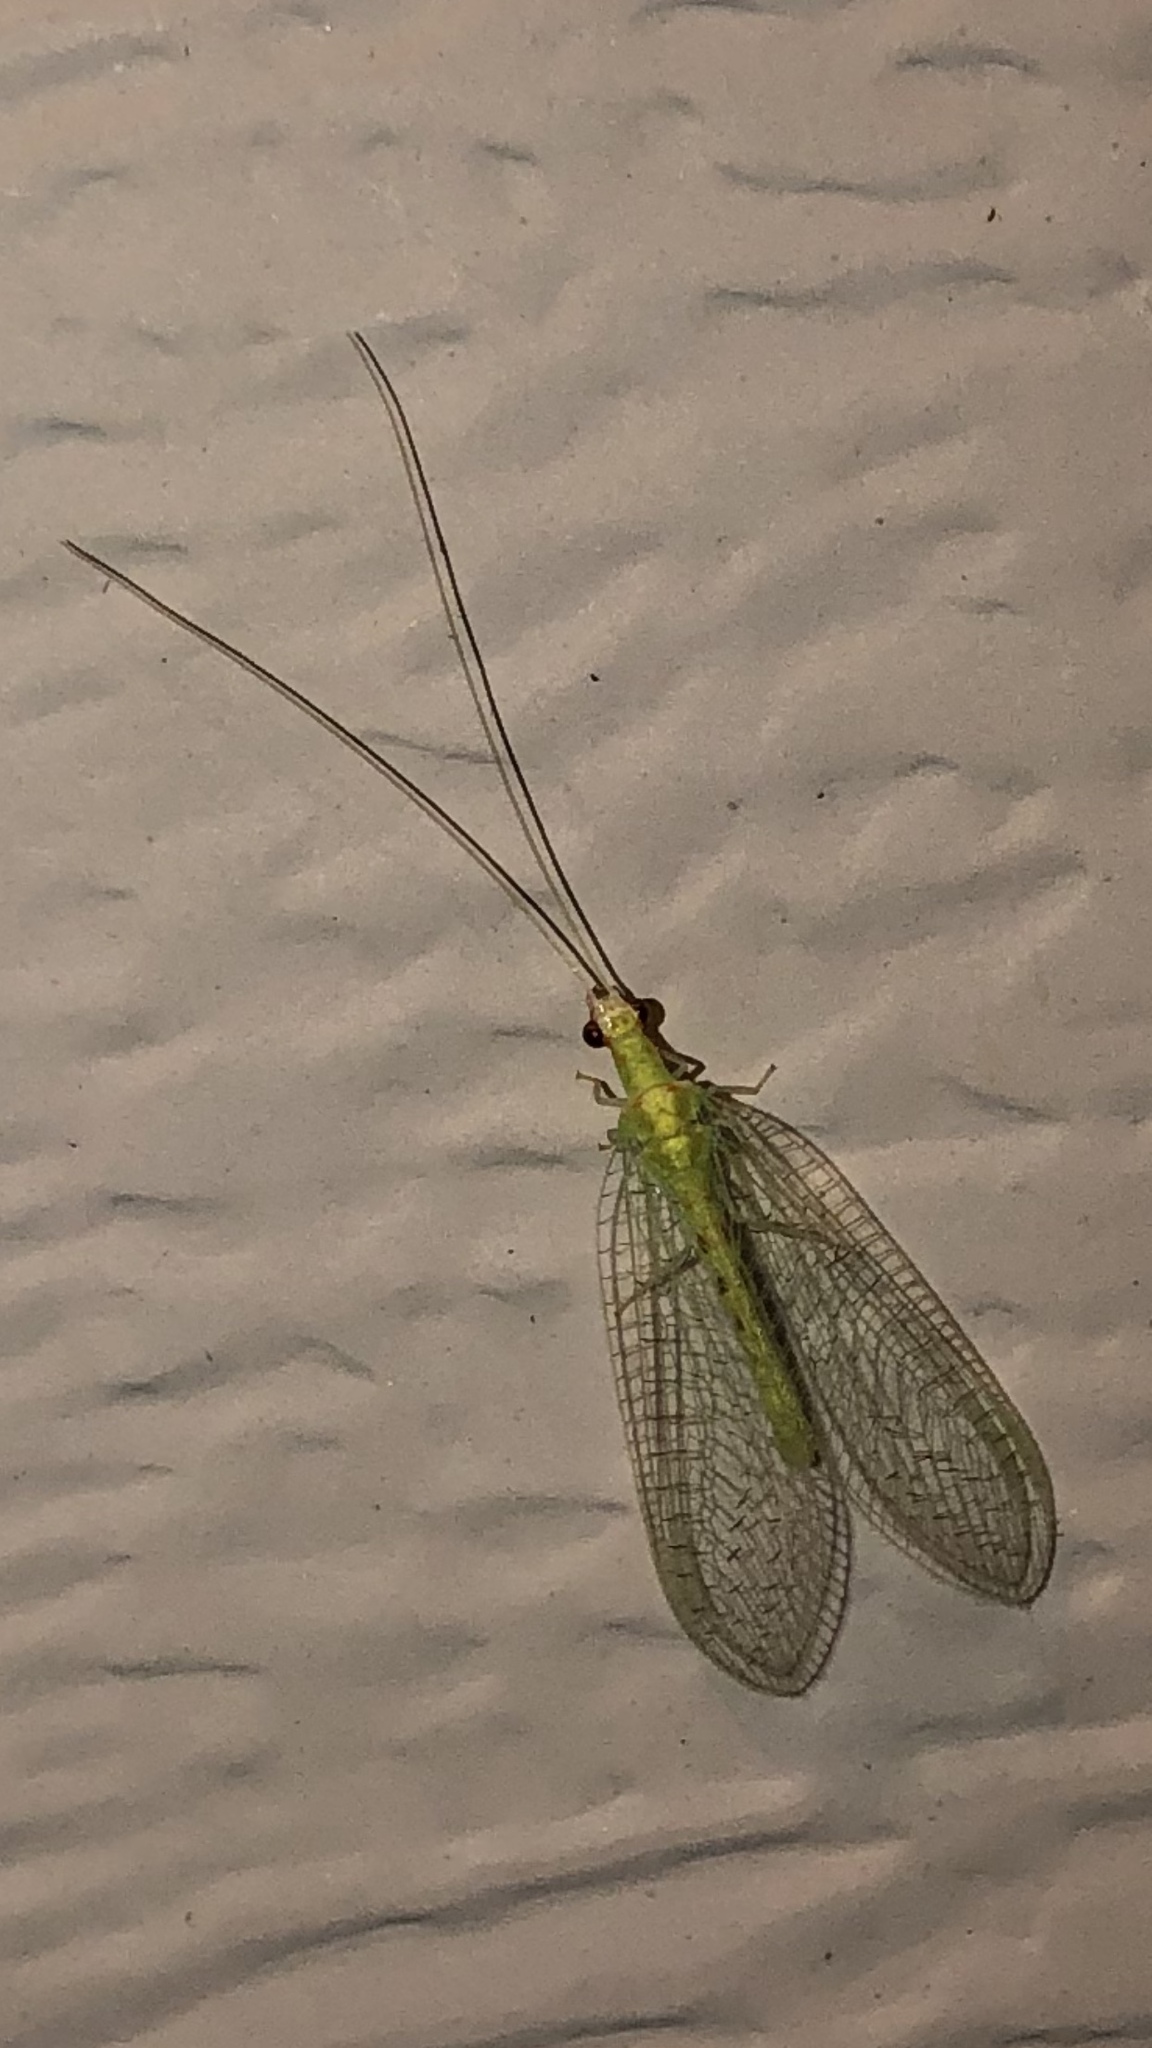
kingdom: Animalia
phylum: Arthropoda
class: Insecta
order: Neuroptera
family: Chrysopidae
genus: Chrysopa
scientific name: Chrysopa quadripunctata
